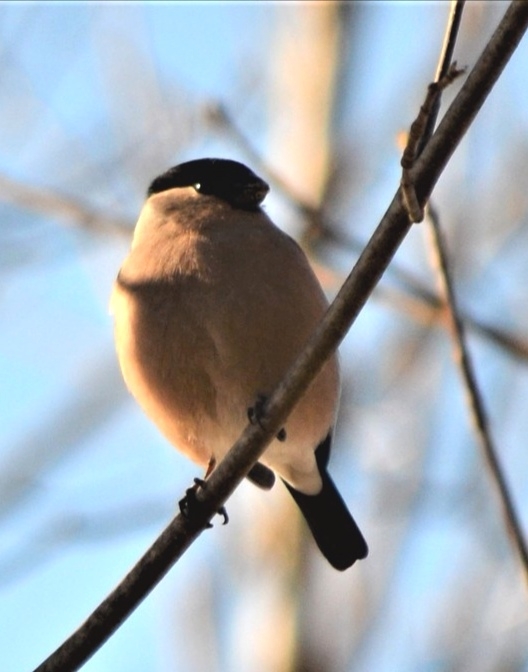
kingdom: Animalia
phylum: Chordata
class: Aves
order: Passeriformes
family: Fringillidae
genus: Pyrrhula
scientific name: Pyrrhula pyrrhula
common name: Eurasian bullfinch
